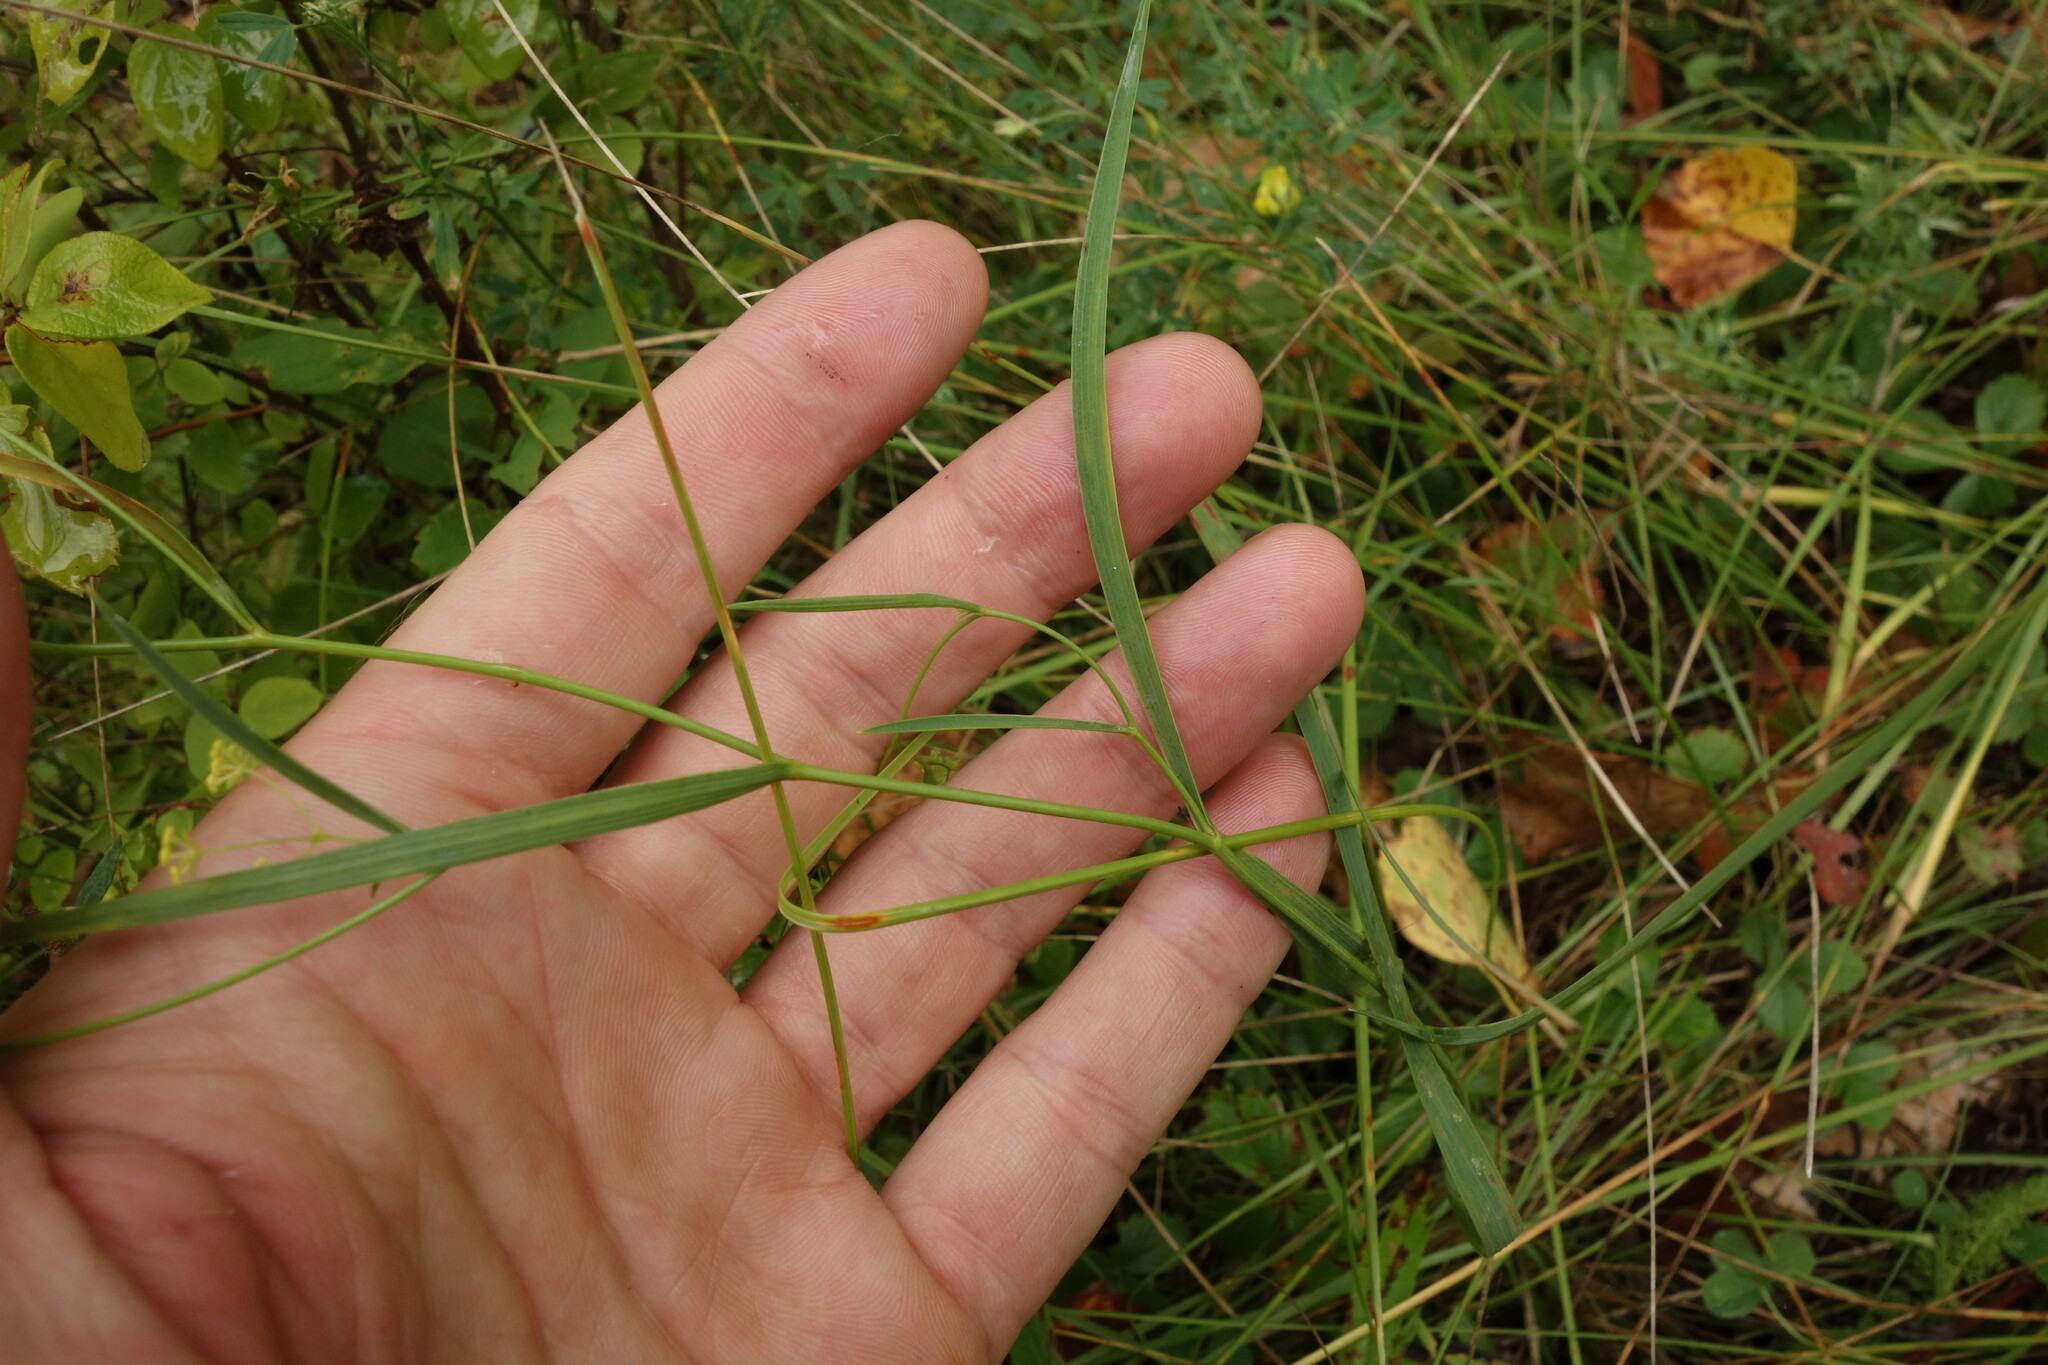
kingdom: Plantae
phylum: Tracheophyta
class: Magnoliopsida
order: Apiales
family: Apiaceae
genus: Bupleurum
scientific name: Bupleurum scorzonerifolium
